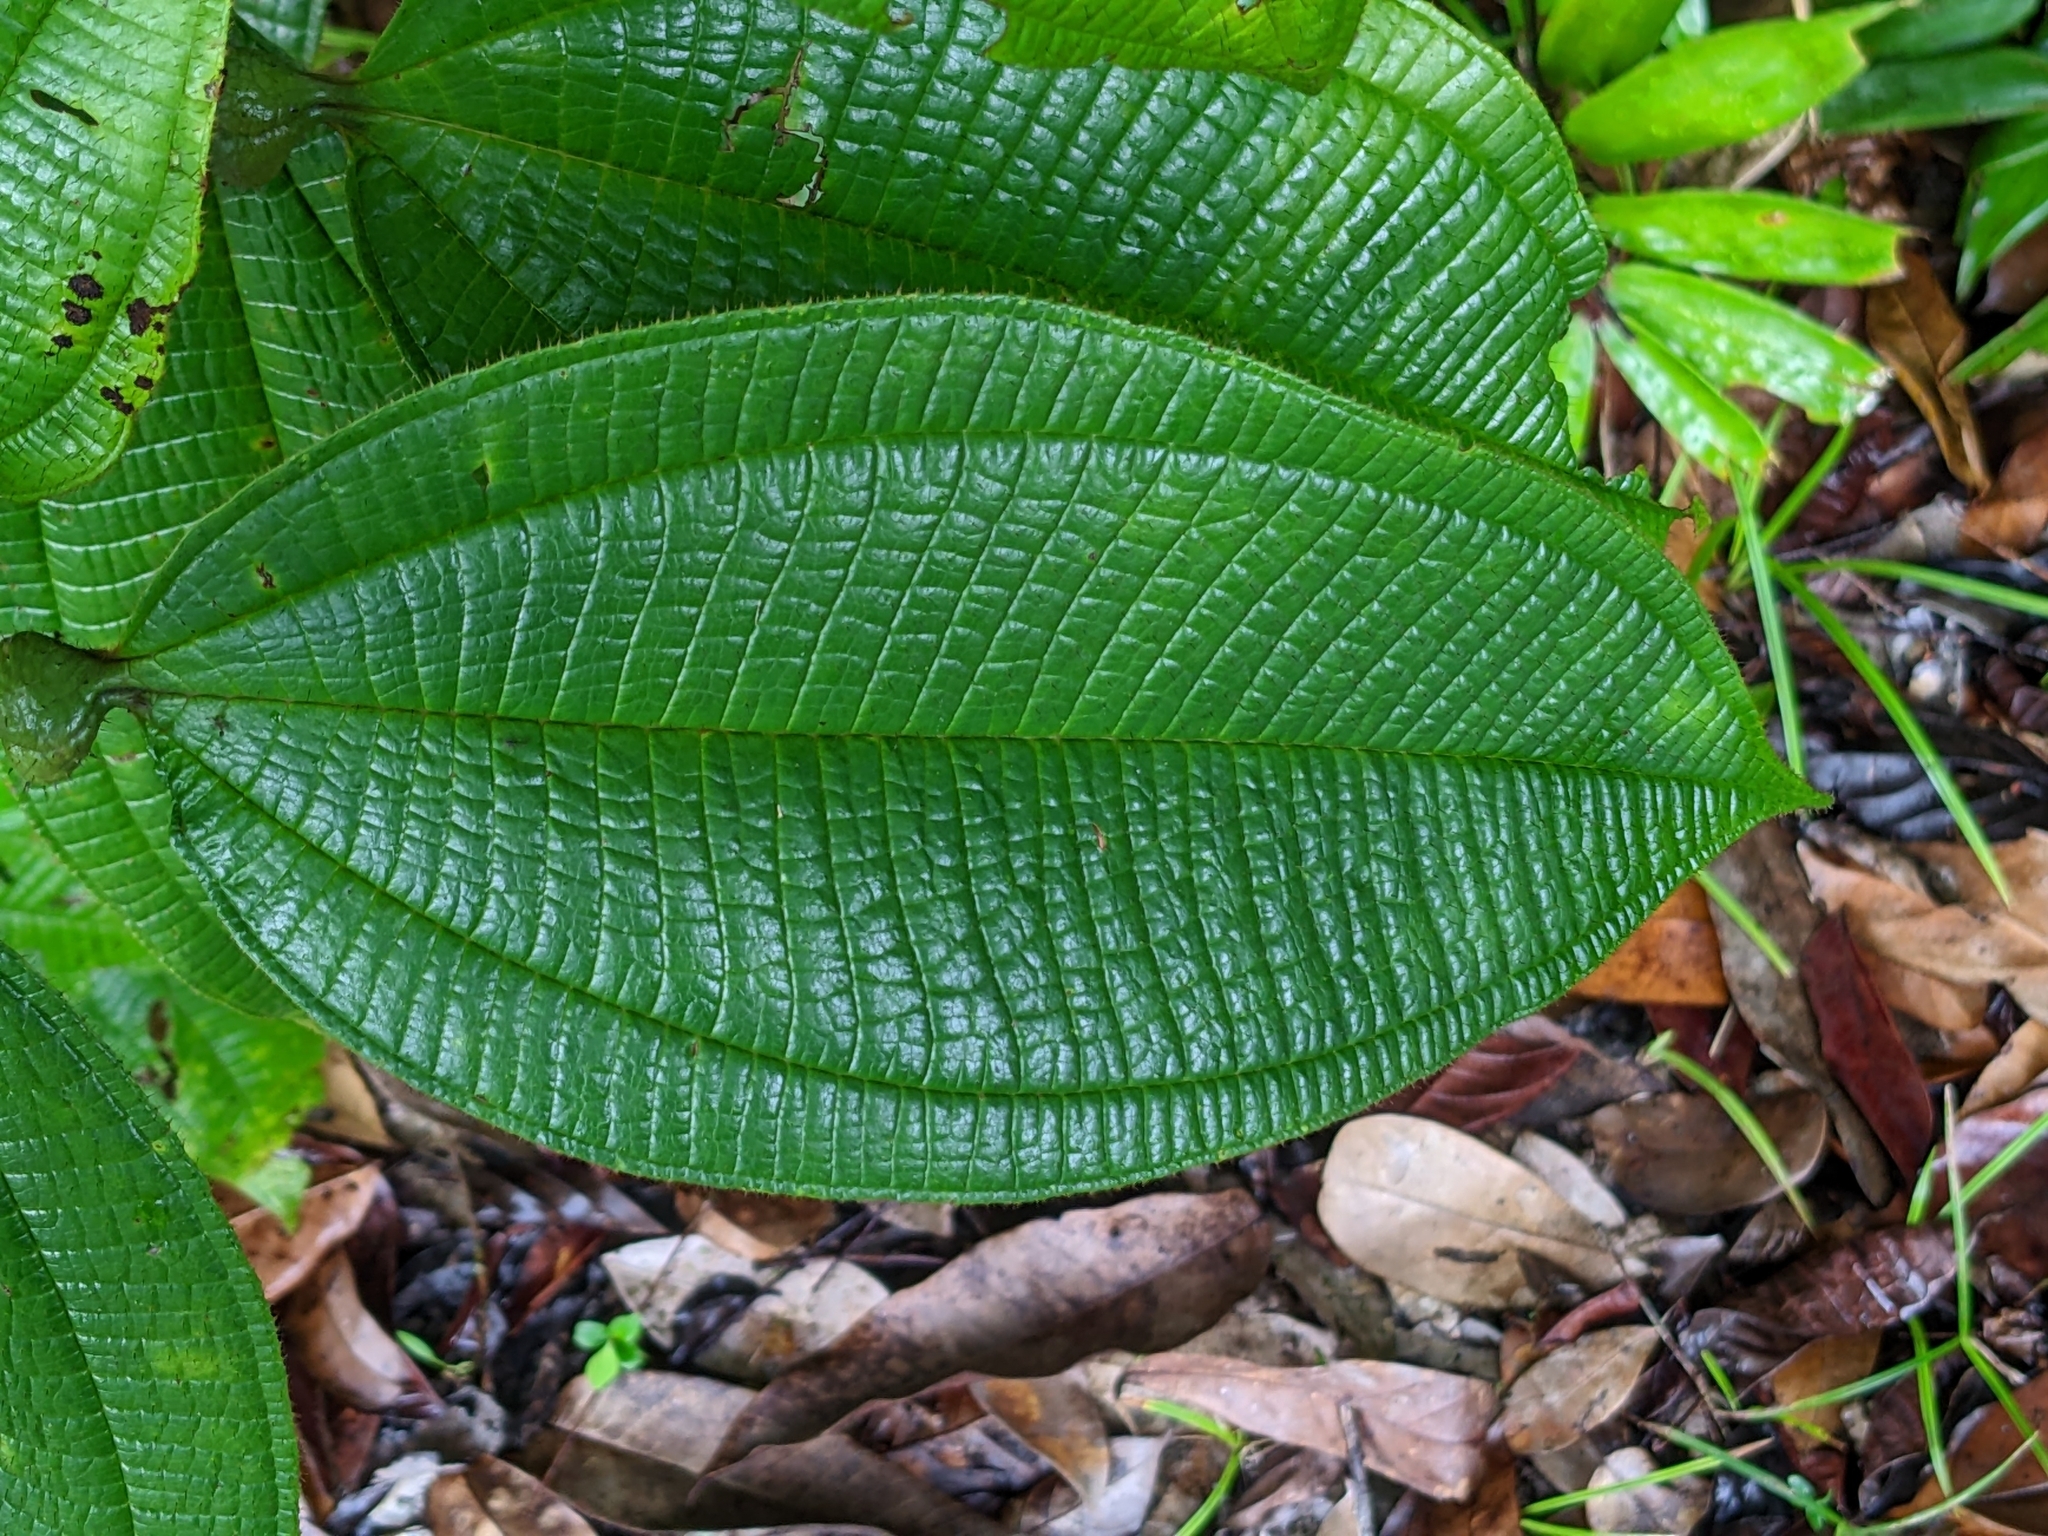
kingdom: Plantae
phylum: Tracheophyta
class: Magnoliopsida
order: Myrtales
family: Melastomataceae
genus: Miconia
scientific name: Miconia tococa
